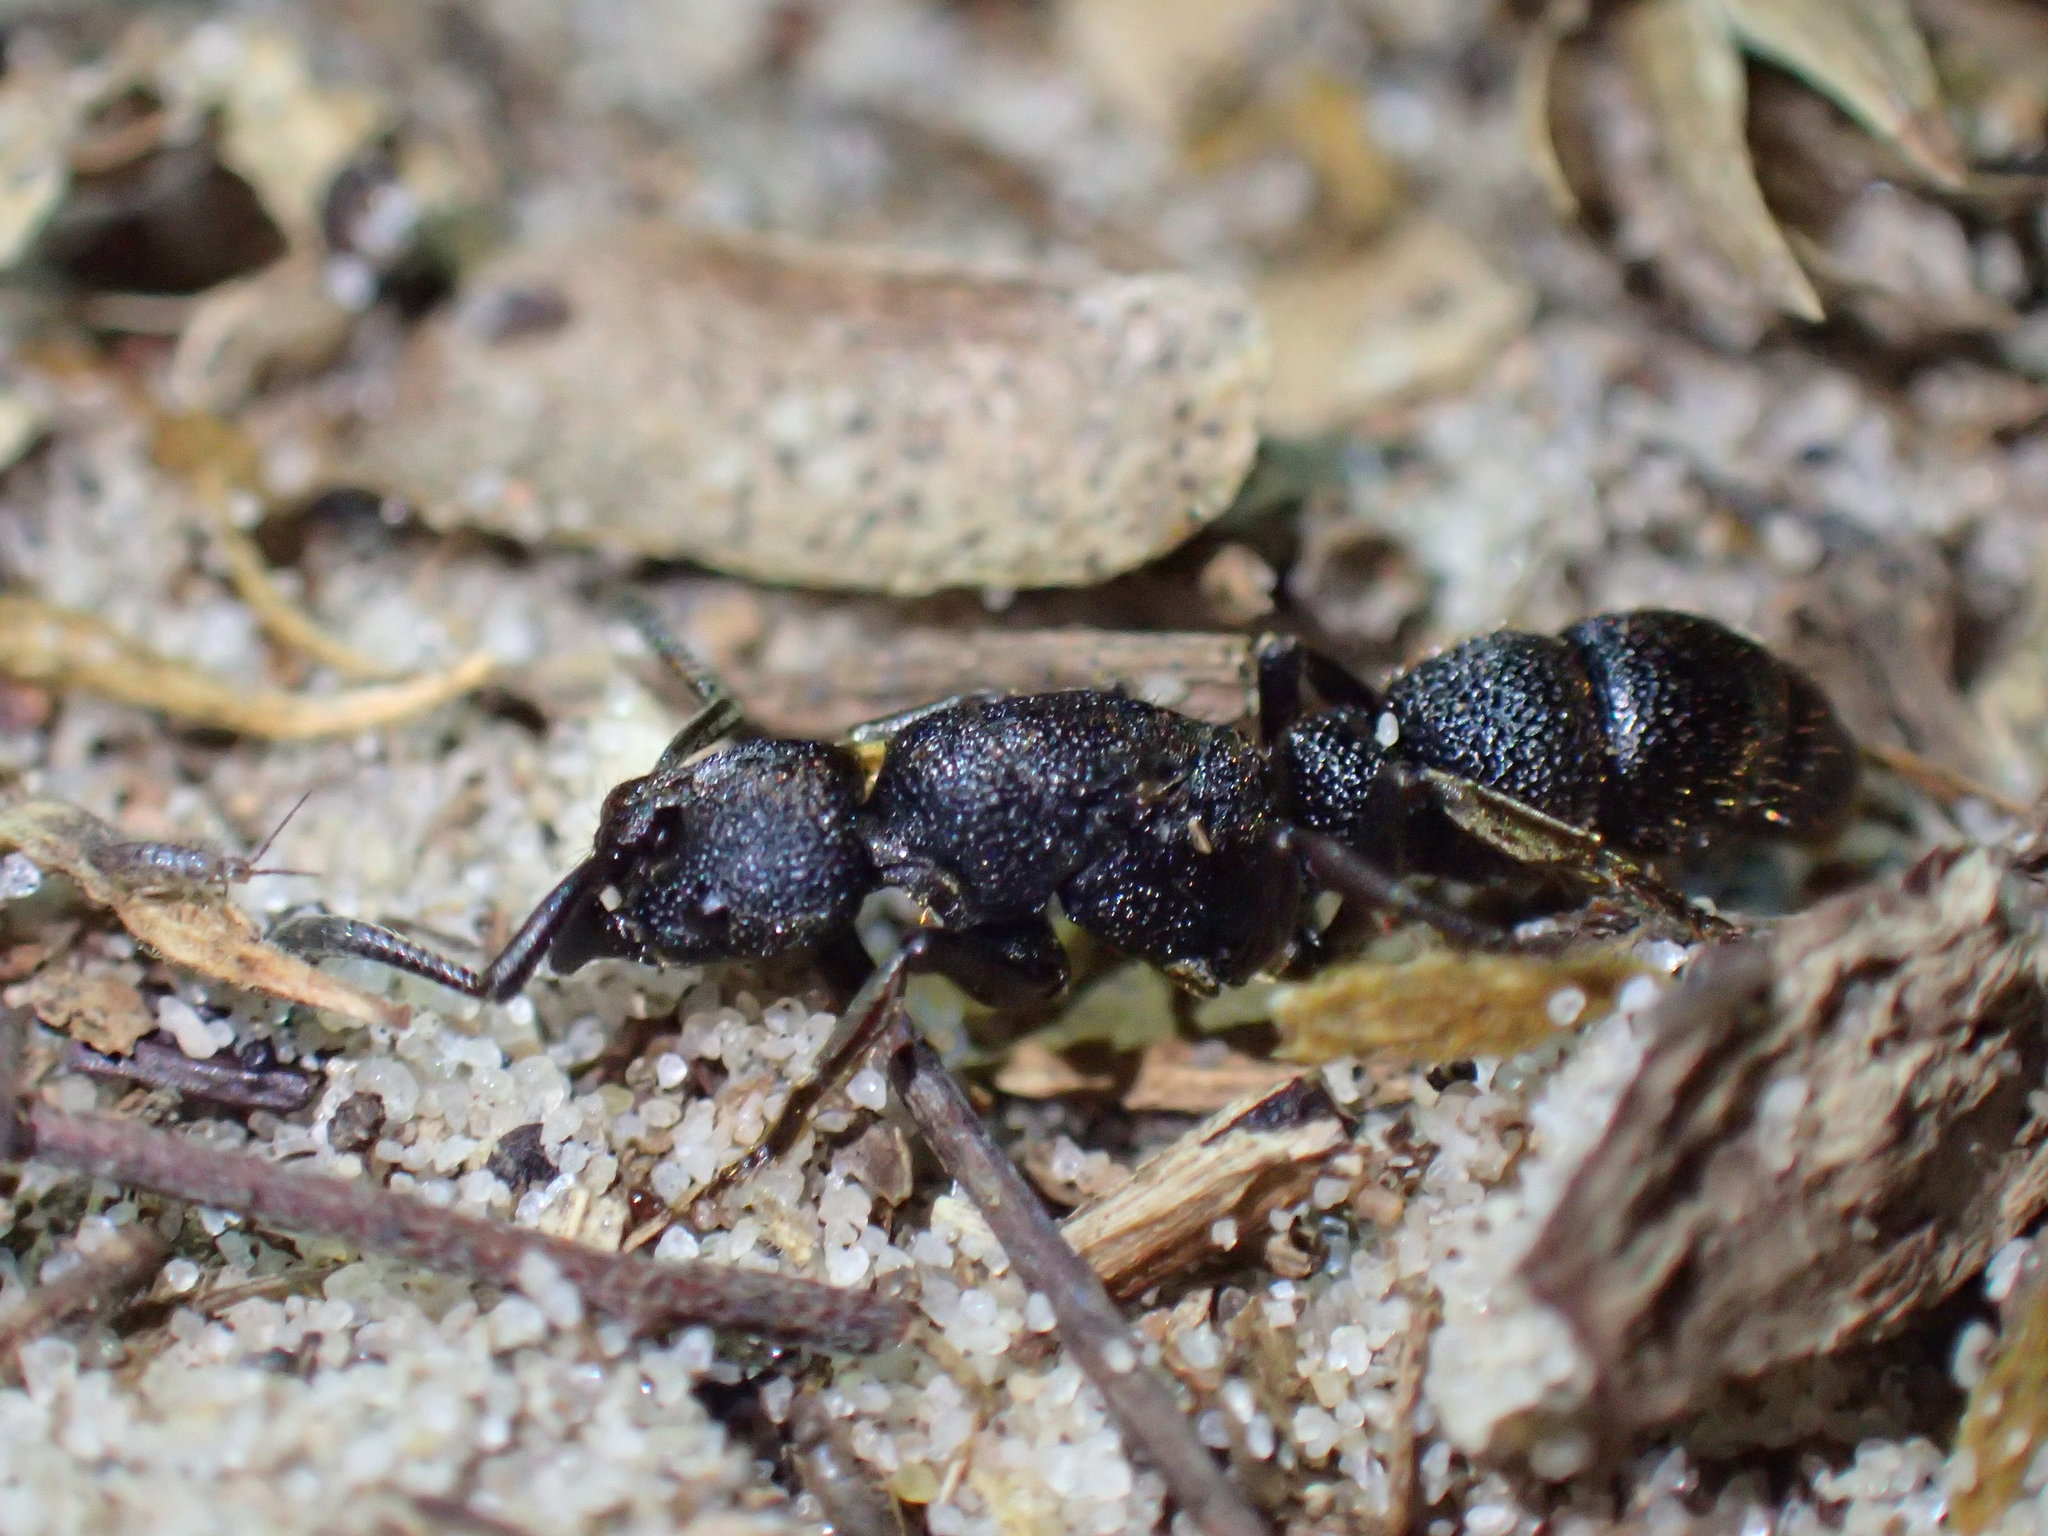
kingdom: Animalia
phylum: Arthropoda
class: Insecta
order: Hymenoptera
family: Formicidae
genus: Bothroponera
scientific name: Bothroponera
